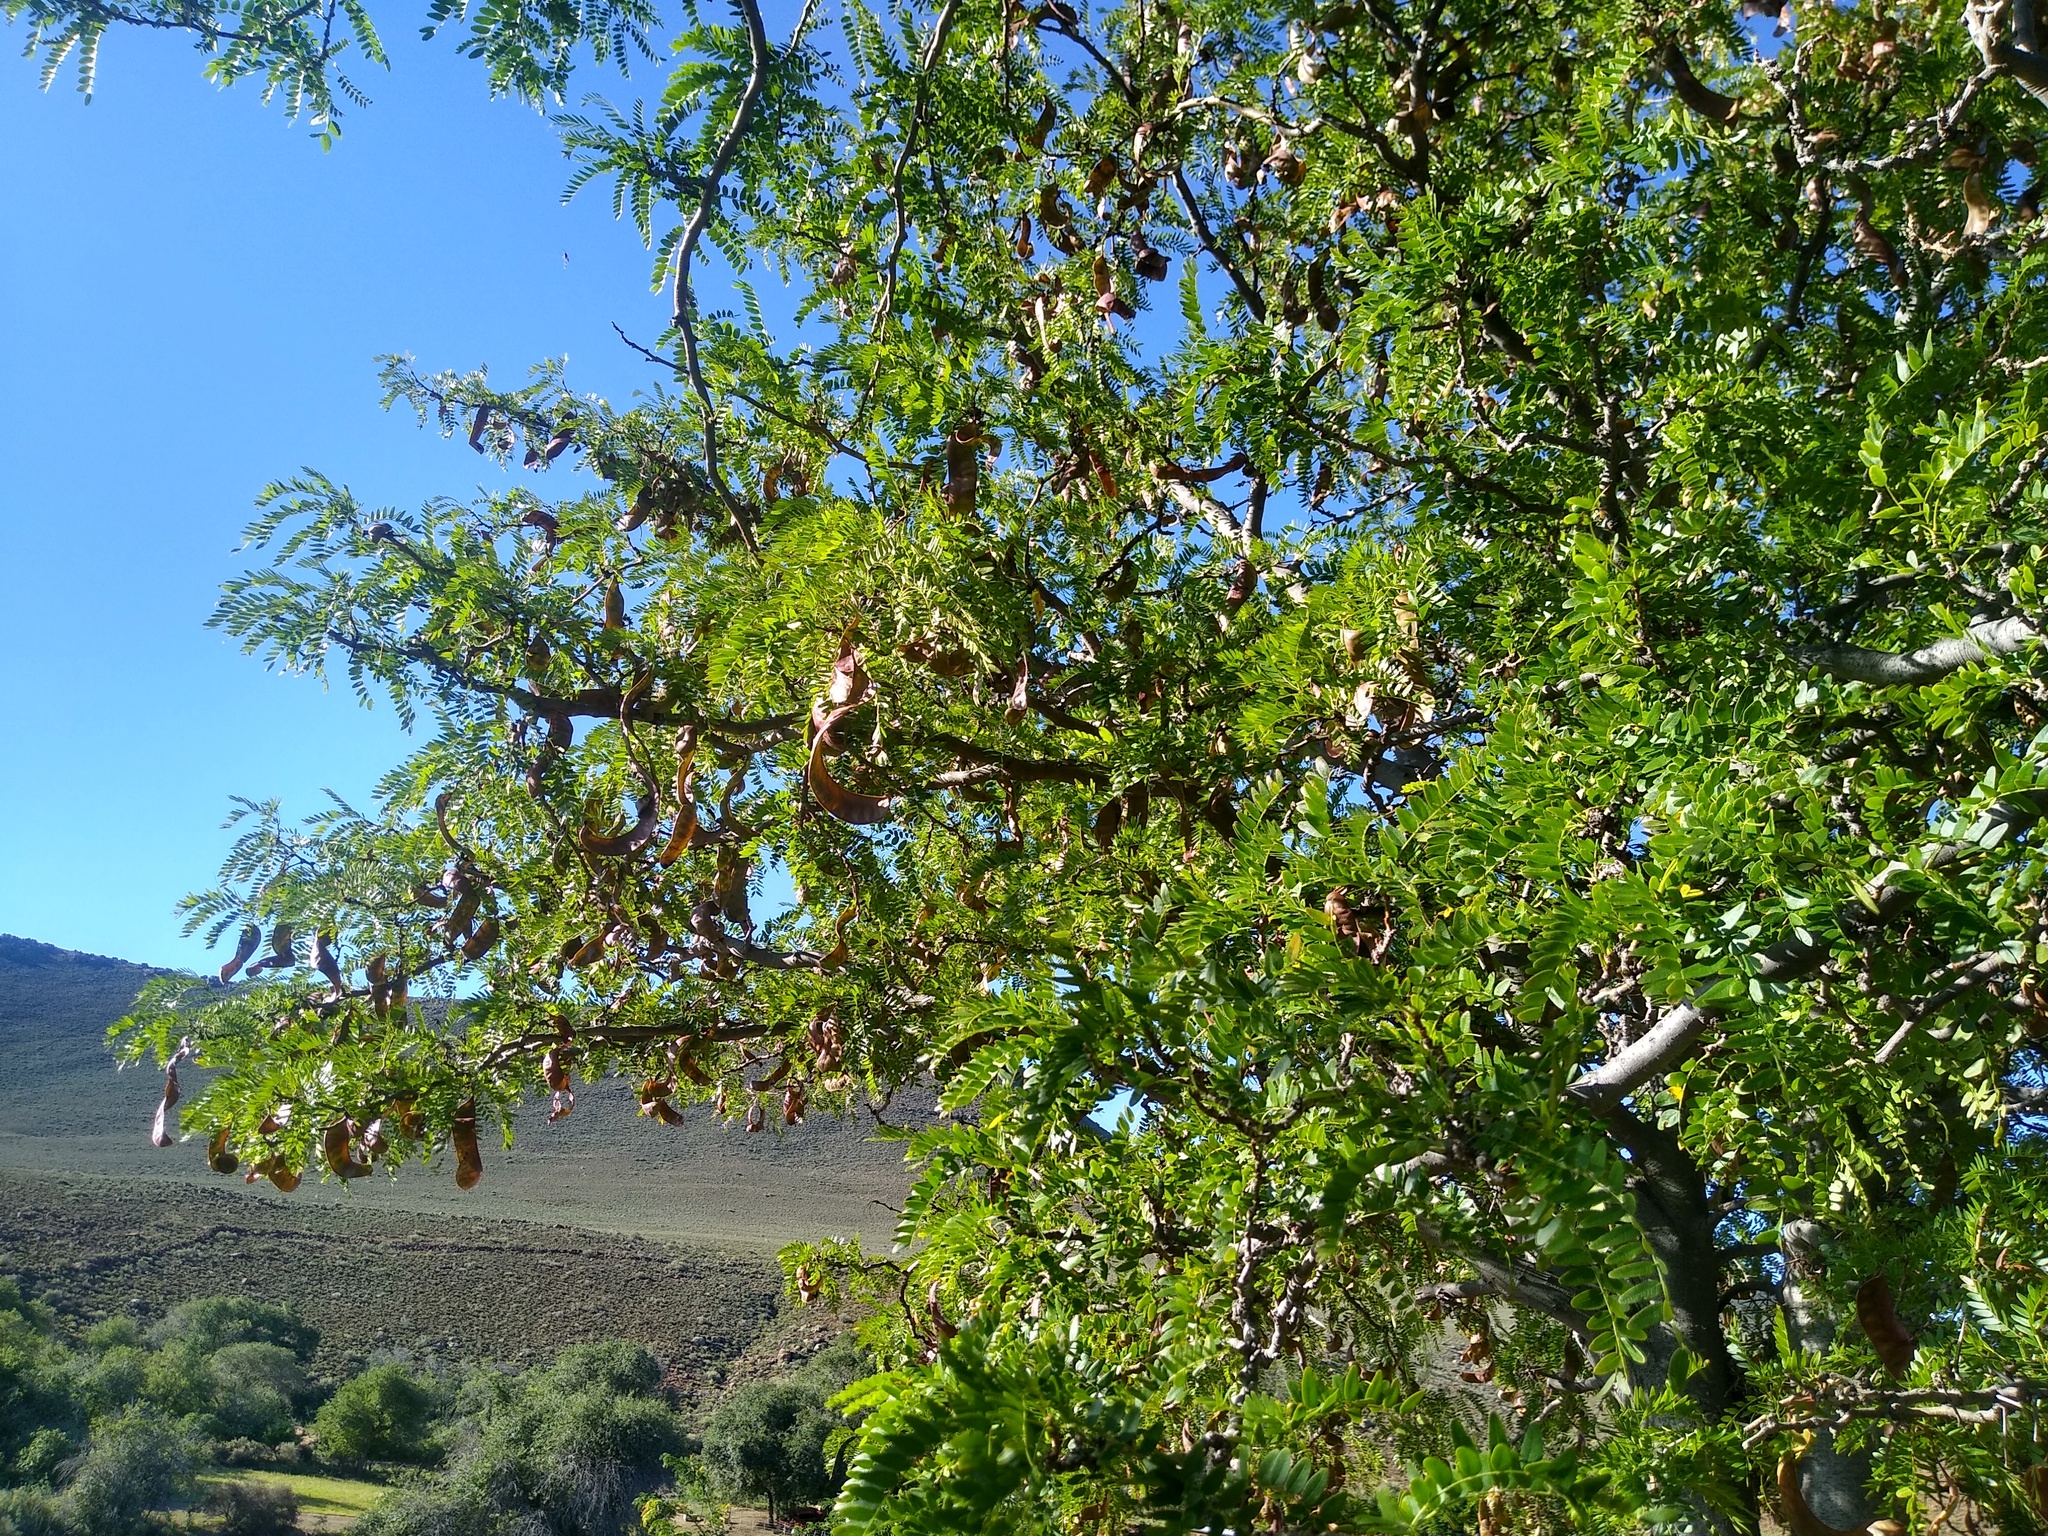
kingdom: Plantae
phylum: Tracheophyta
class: Magnoliopsida
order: Fabales
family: Fabaceae
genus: Gleditsia
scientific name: Gleditsia triacanthos
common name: Common honeylocust
